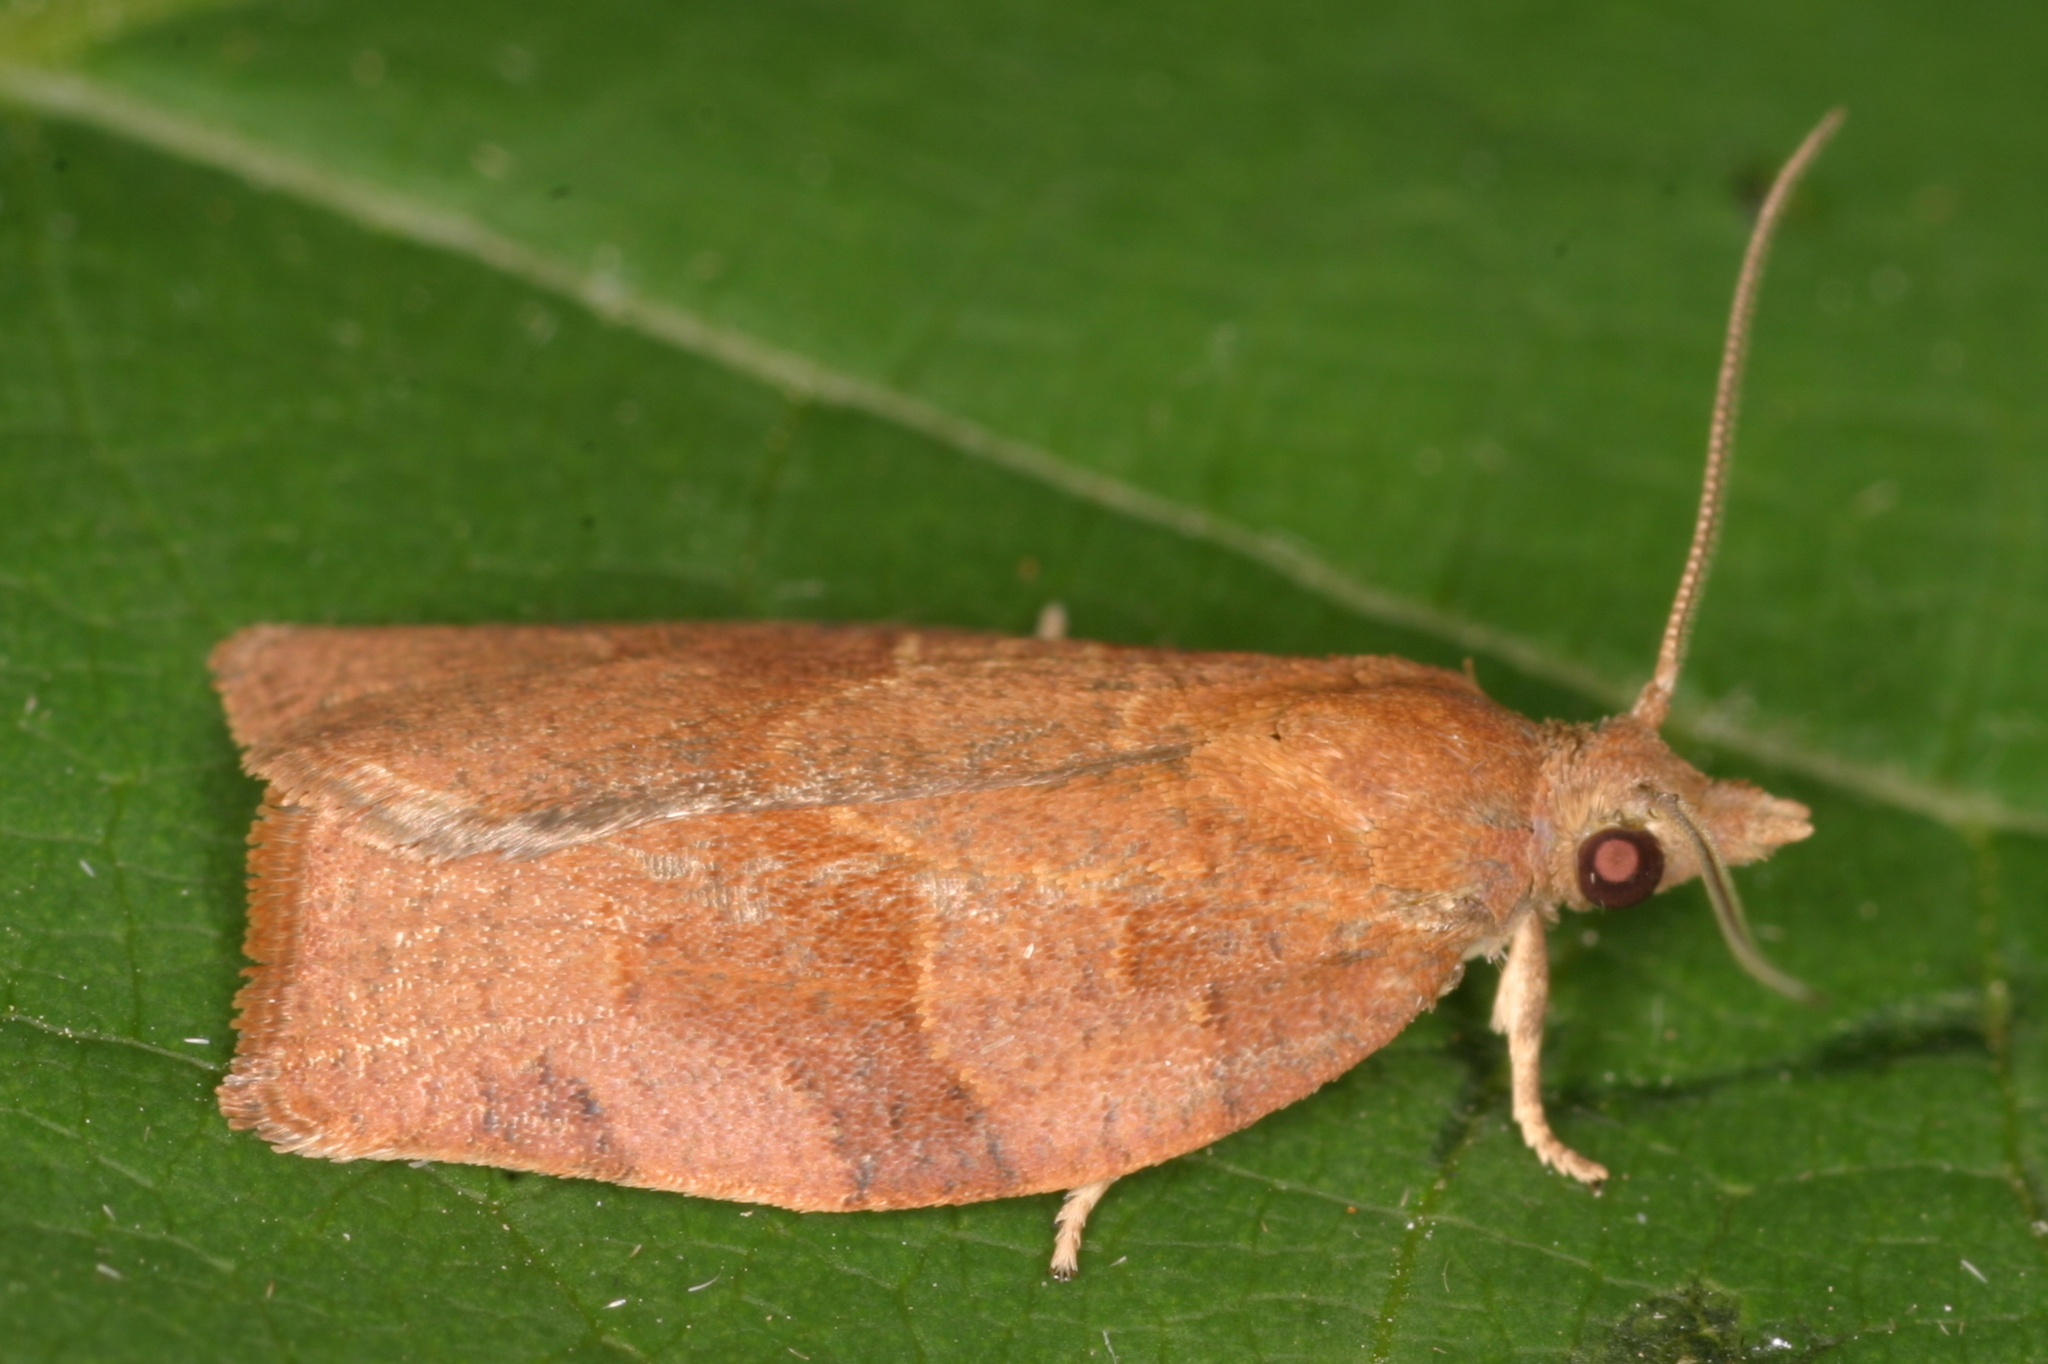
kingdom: Animalia
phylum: Arthropoda
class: Insecta
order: Lepidoptera
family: Tortricidae
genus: Pandemis
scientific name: Pandemis heparana
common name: Dark fruit-tree tortrix
